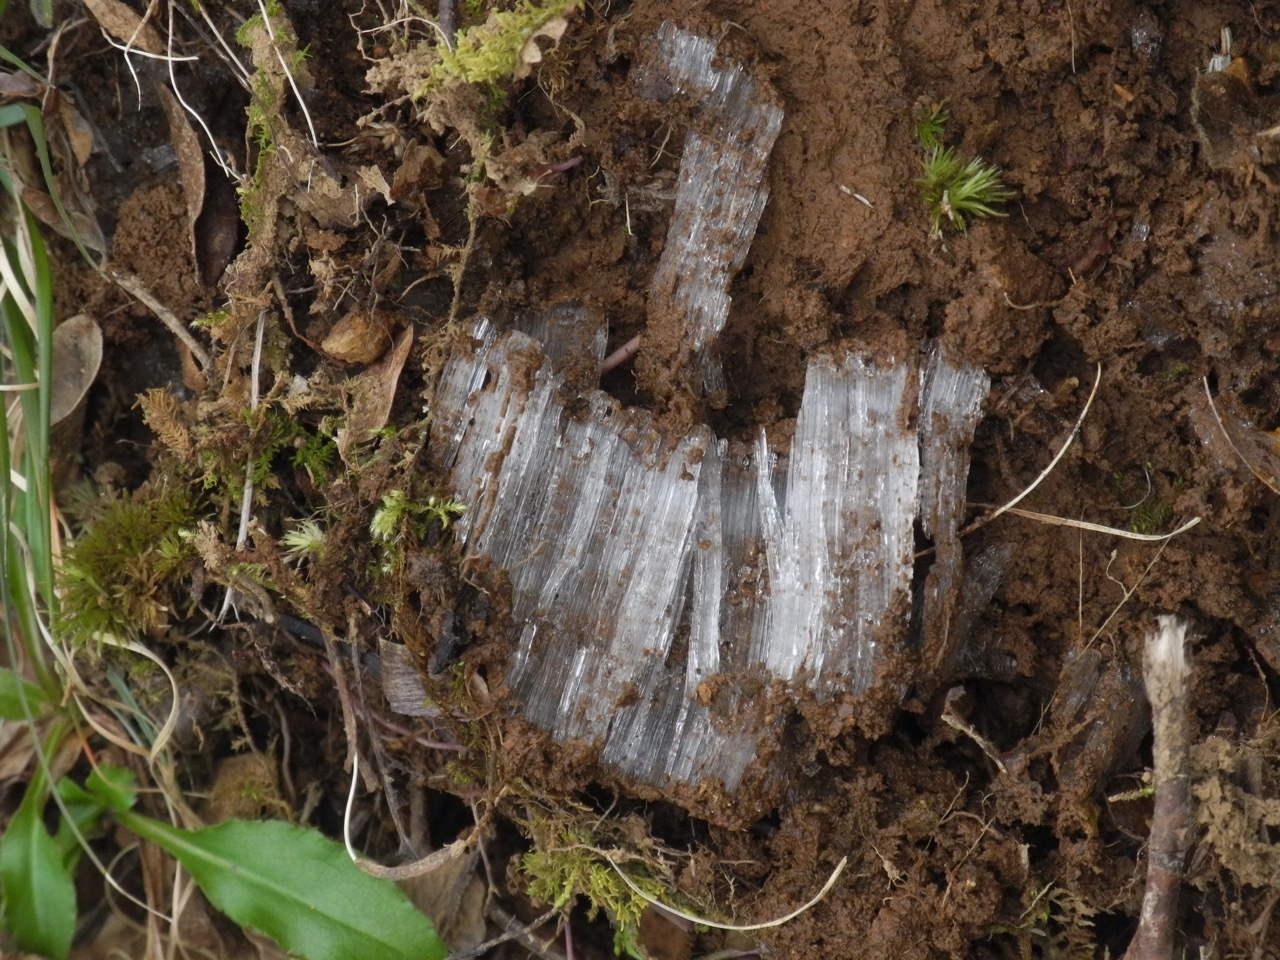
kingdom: Plantae
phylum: Tracheophyta
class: Polypodiopsida
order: Polypodiales
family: Dryopteridaceae
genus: Dryopteris
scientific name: Dryopteris marginalis
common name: Marginal wood fern
